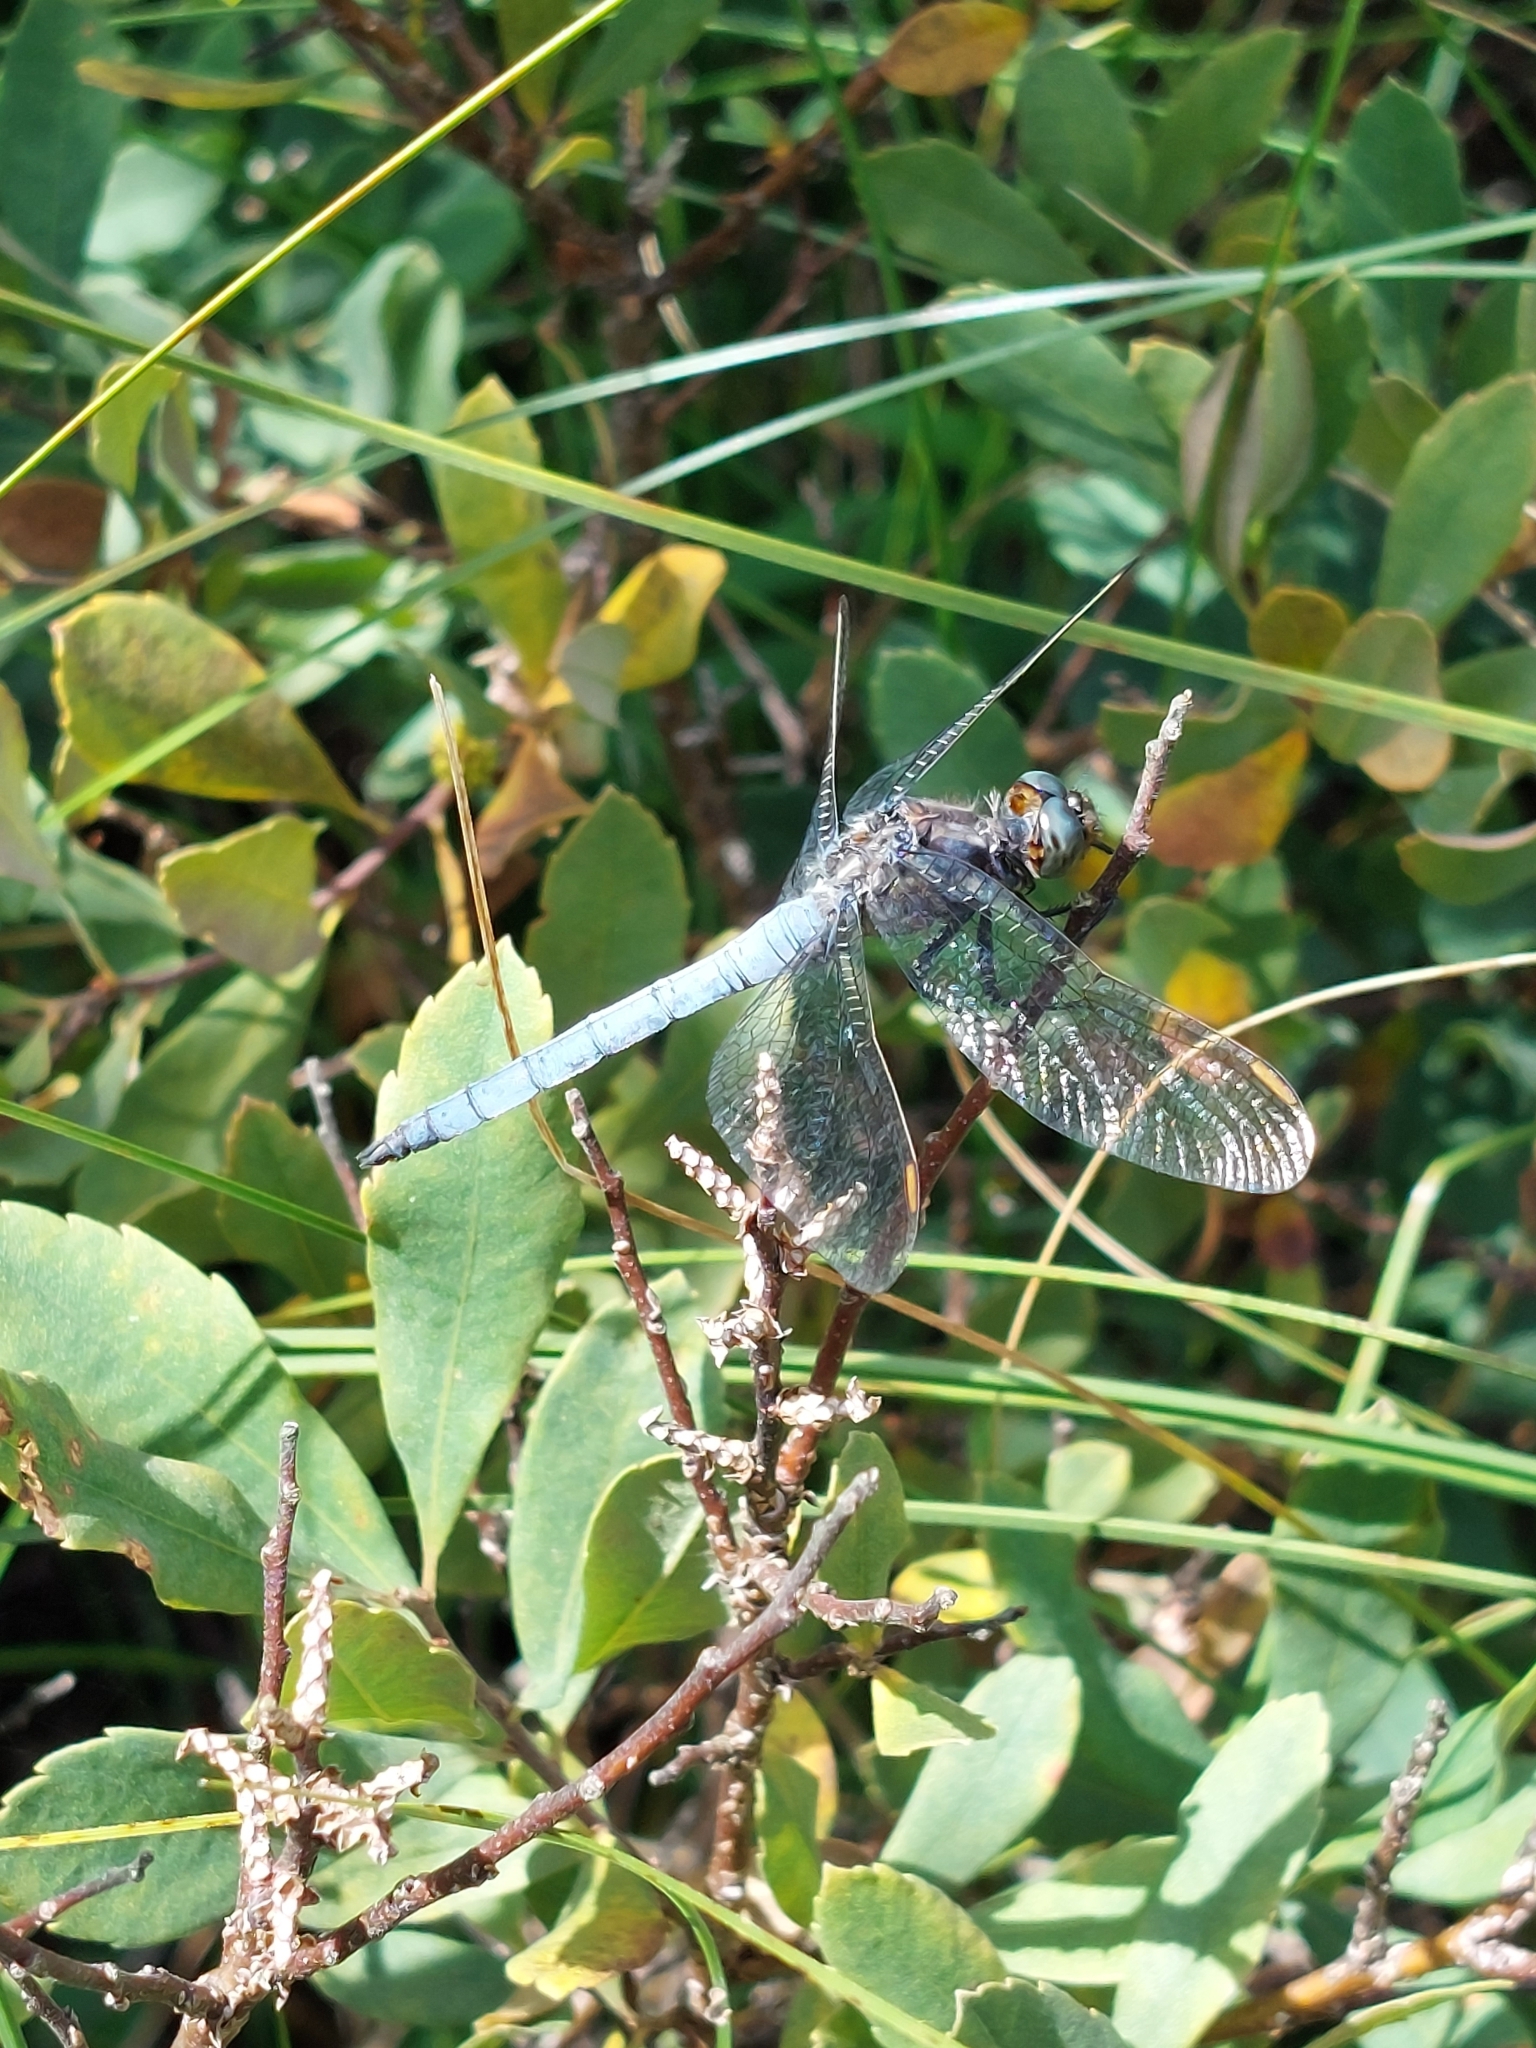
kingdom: Animalia
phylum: Arthropoda
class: Insecta
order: Odonata
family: Libellulidae
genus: Orthetrum
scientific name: Orthetrum coerulescens
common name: Keeled skimmer
